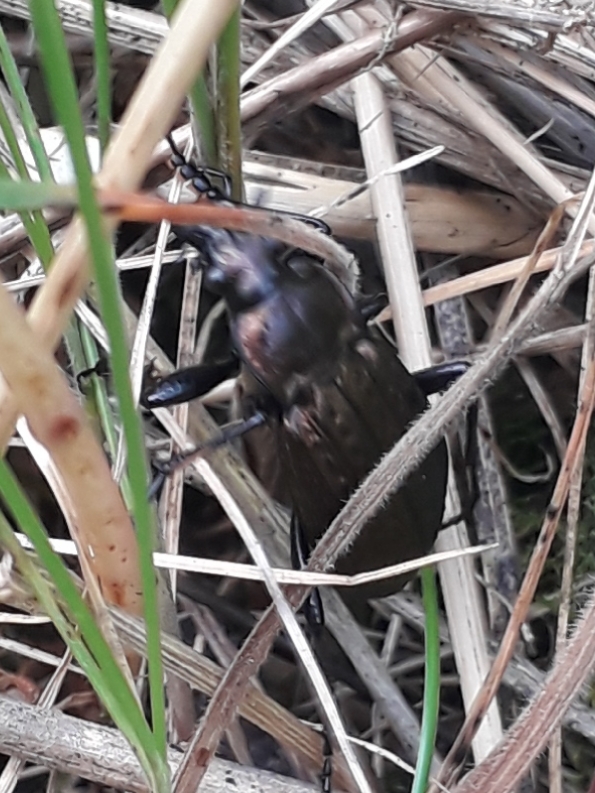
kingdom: Animalia
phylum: Arthropoda
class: Insecta
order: Coleoptera
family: Carabidae
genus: Carabus
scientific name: Carabus granulatus
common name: Granulate ground beetle
